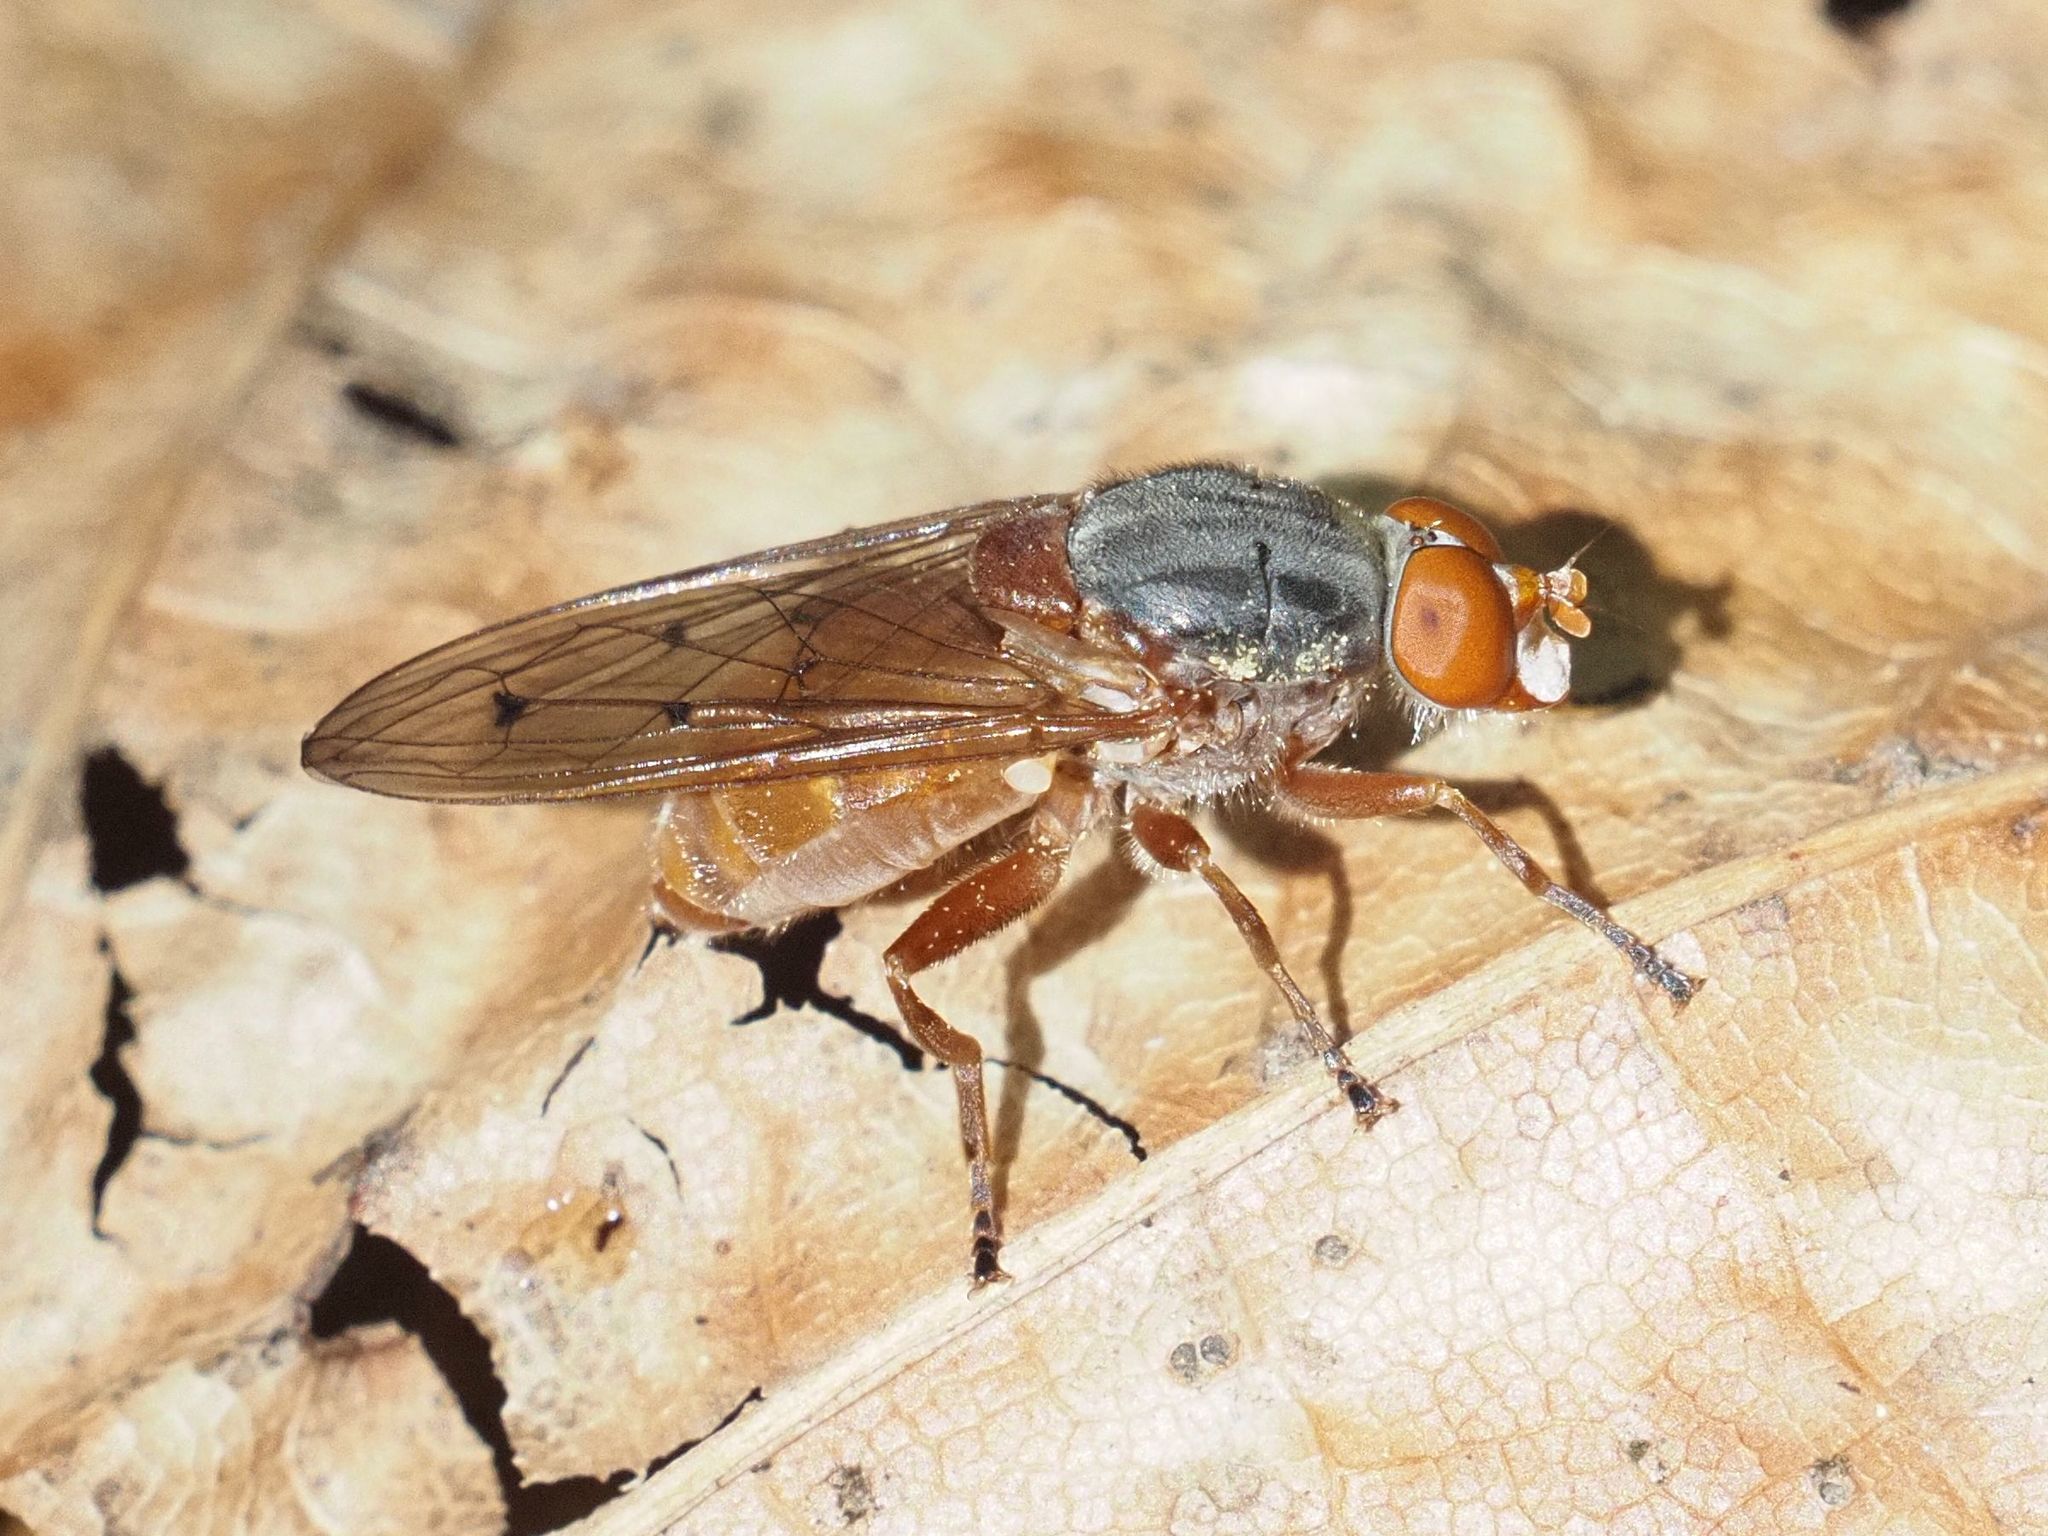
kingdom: Animalia
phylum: Arthropoda
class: Insecta
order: Diptera
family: Syrphidae
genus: Brachyopa
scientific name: Brachyopa maculipennis
